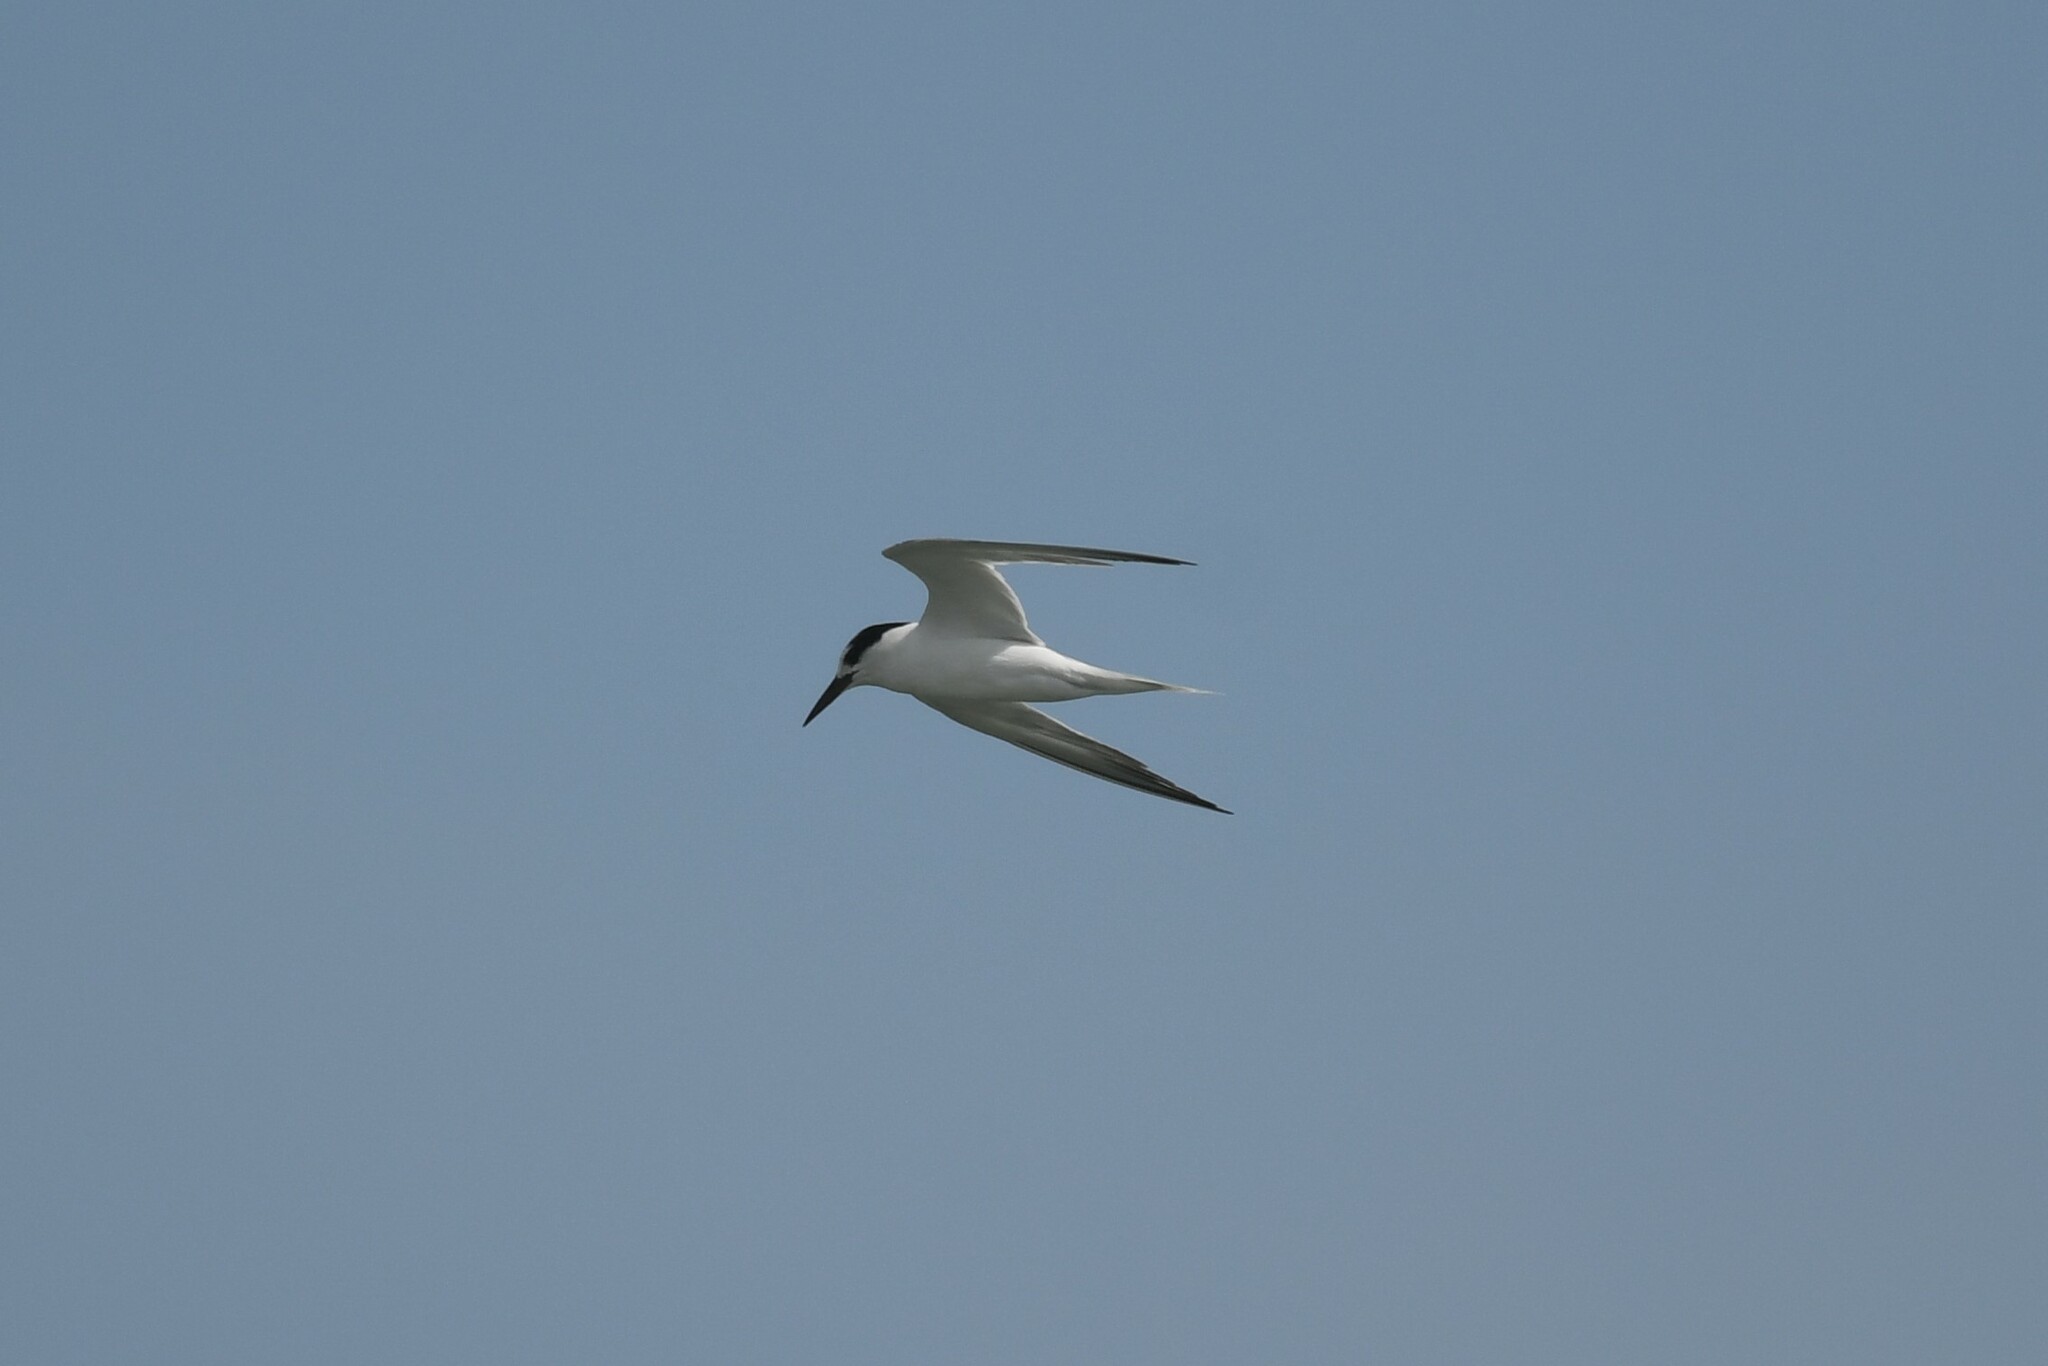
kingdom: Animalia
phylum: Chordata
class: Aves
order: Charadriiformes
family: Laridae
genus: Sternula
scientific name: Sternula albifrons
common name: Little tern
